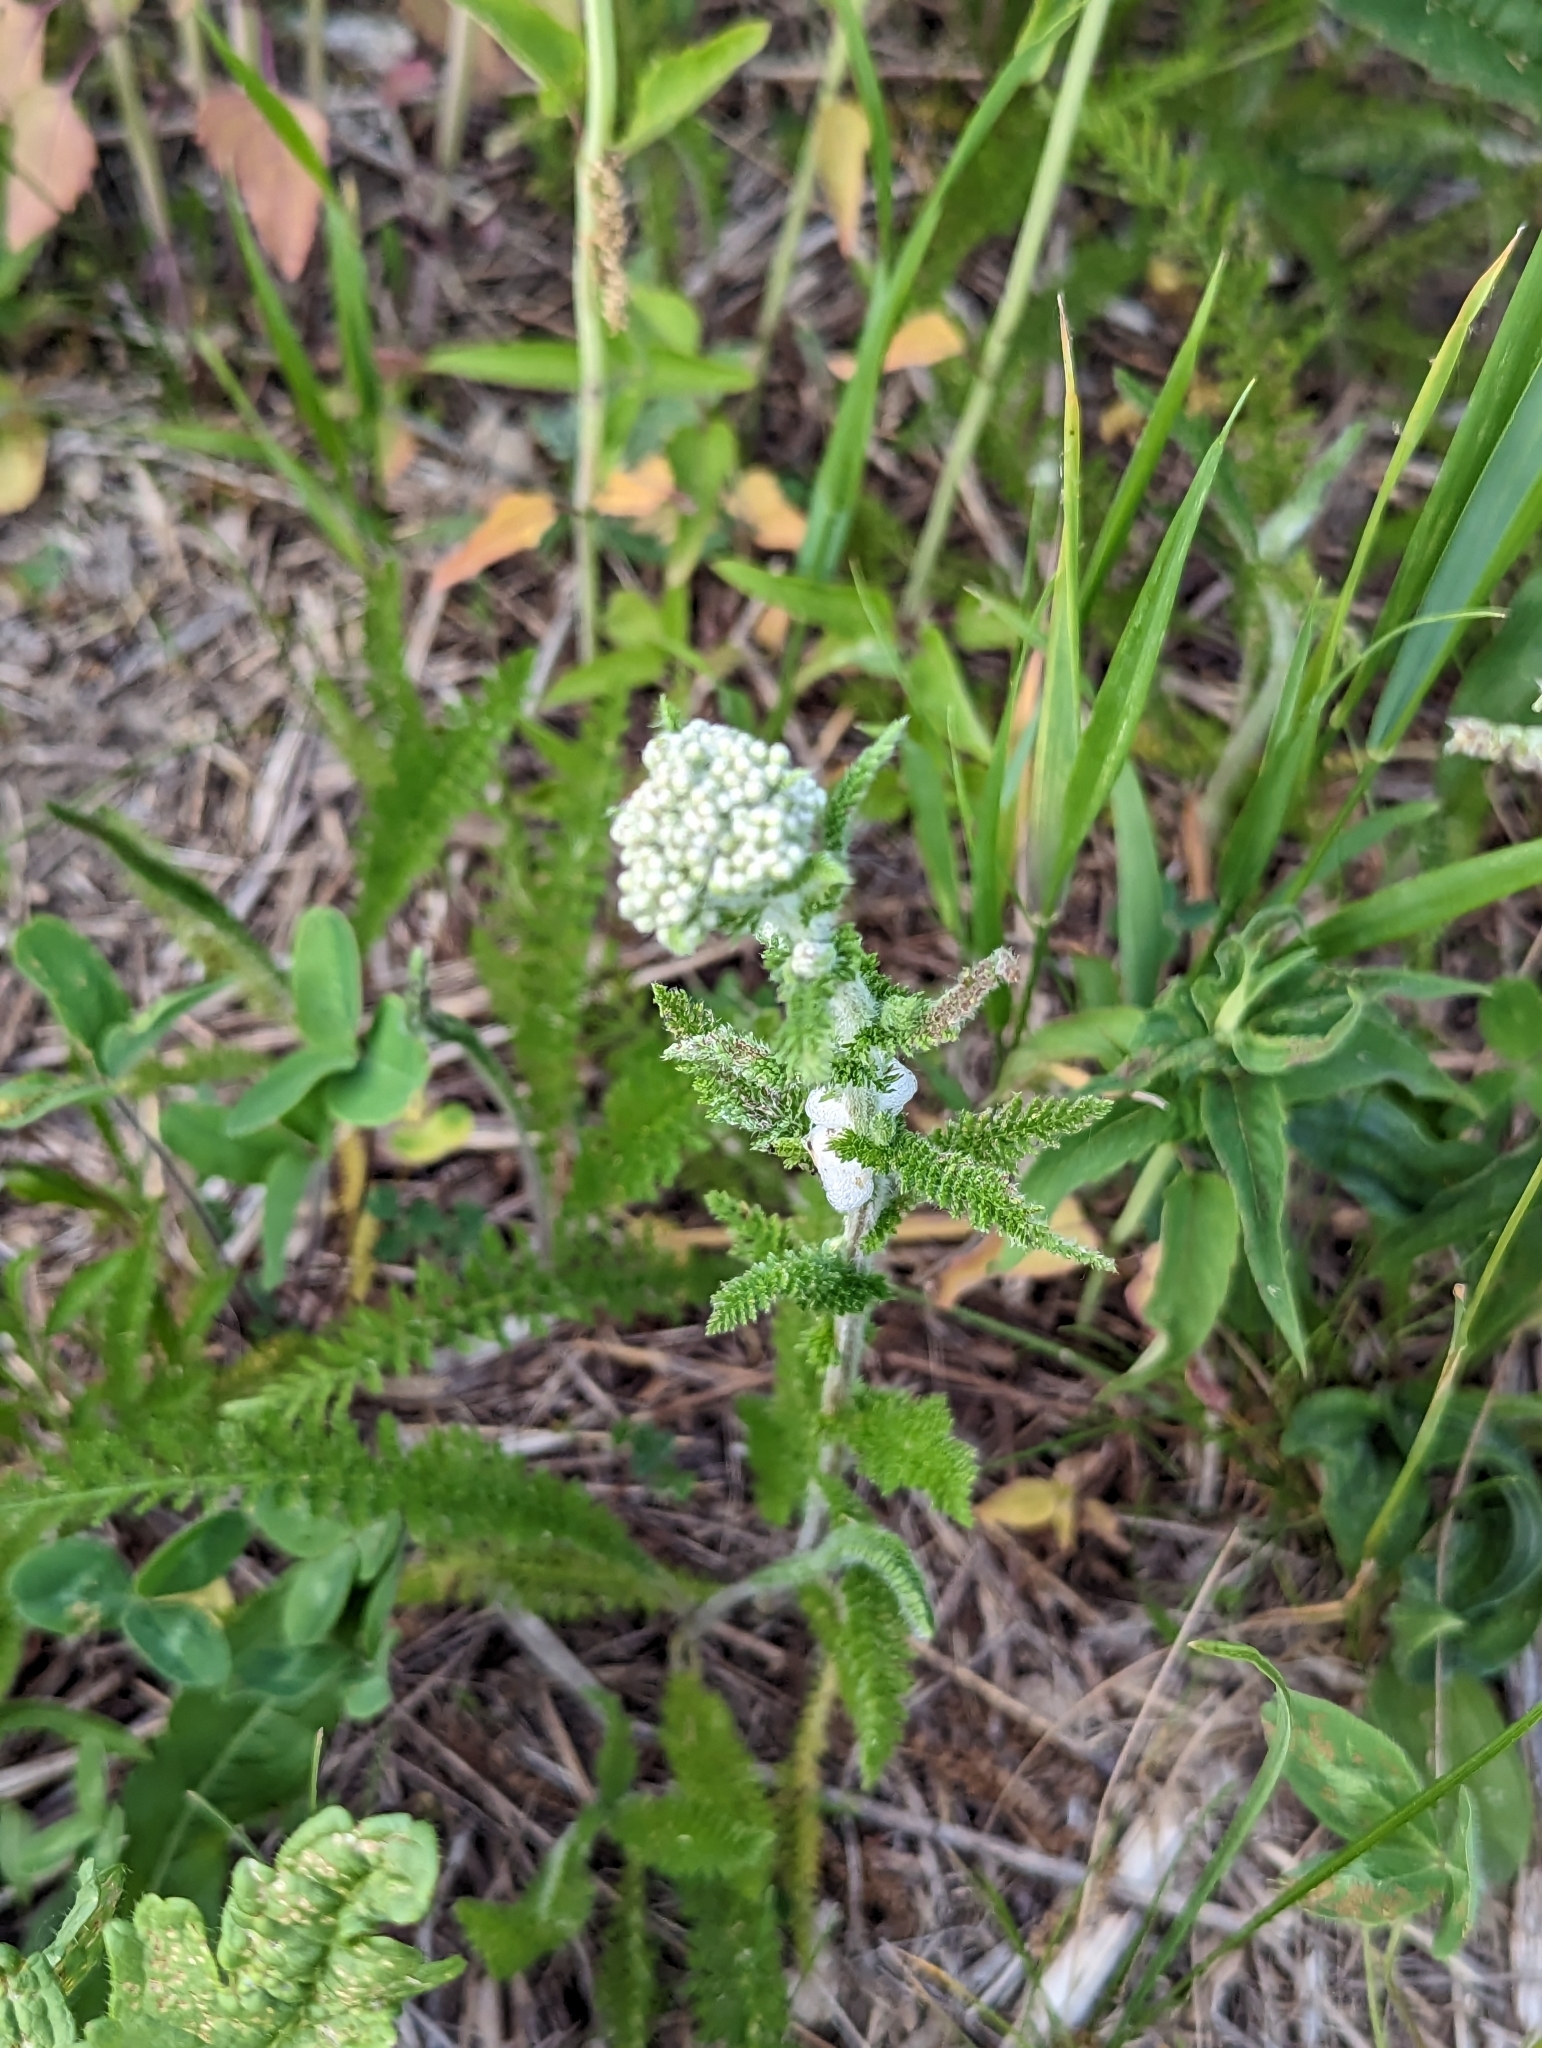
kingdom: Plantae
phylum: Tracheophyta
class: Magnoliopsida
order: Asterales
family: Asteraceae
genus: Achillea
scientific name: Achillea millefolium
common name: Yarrow
